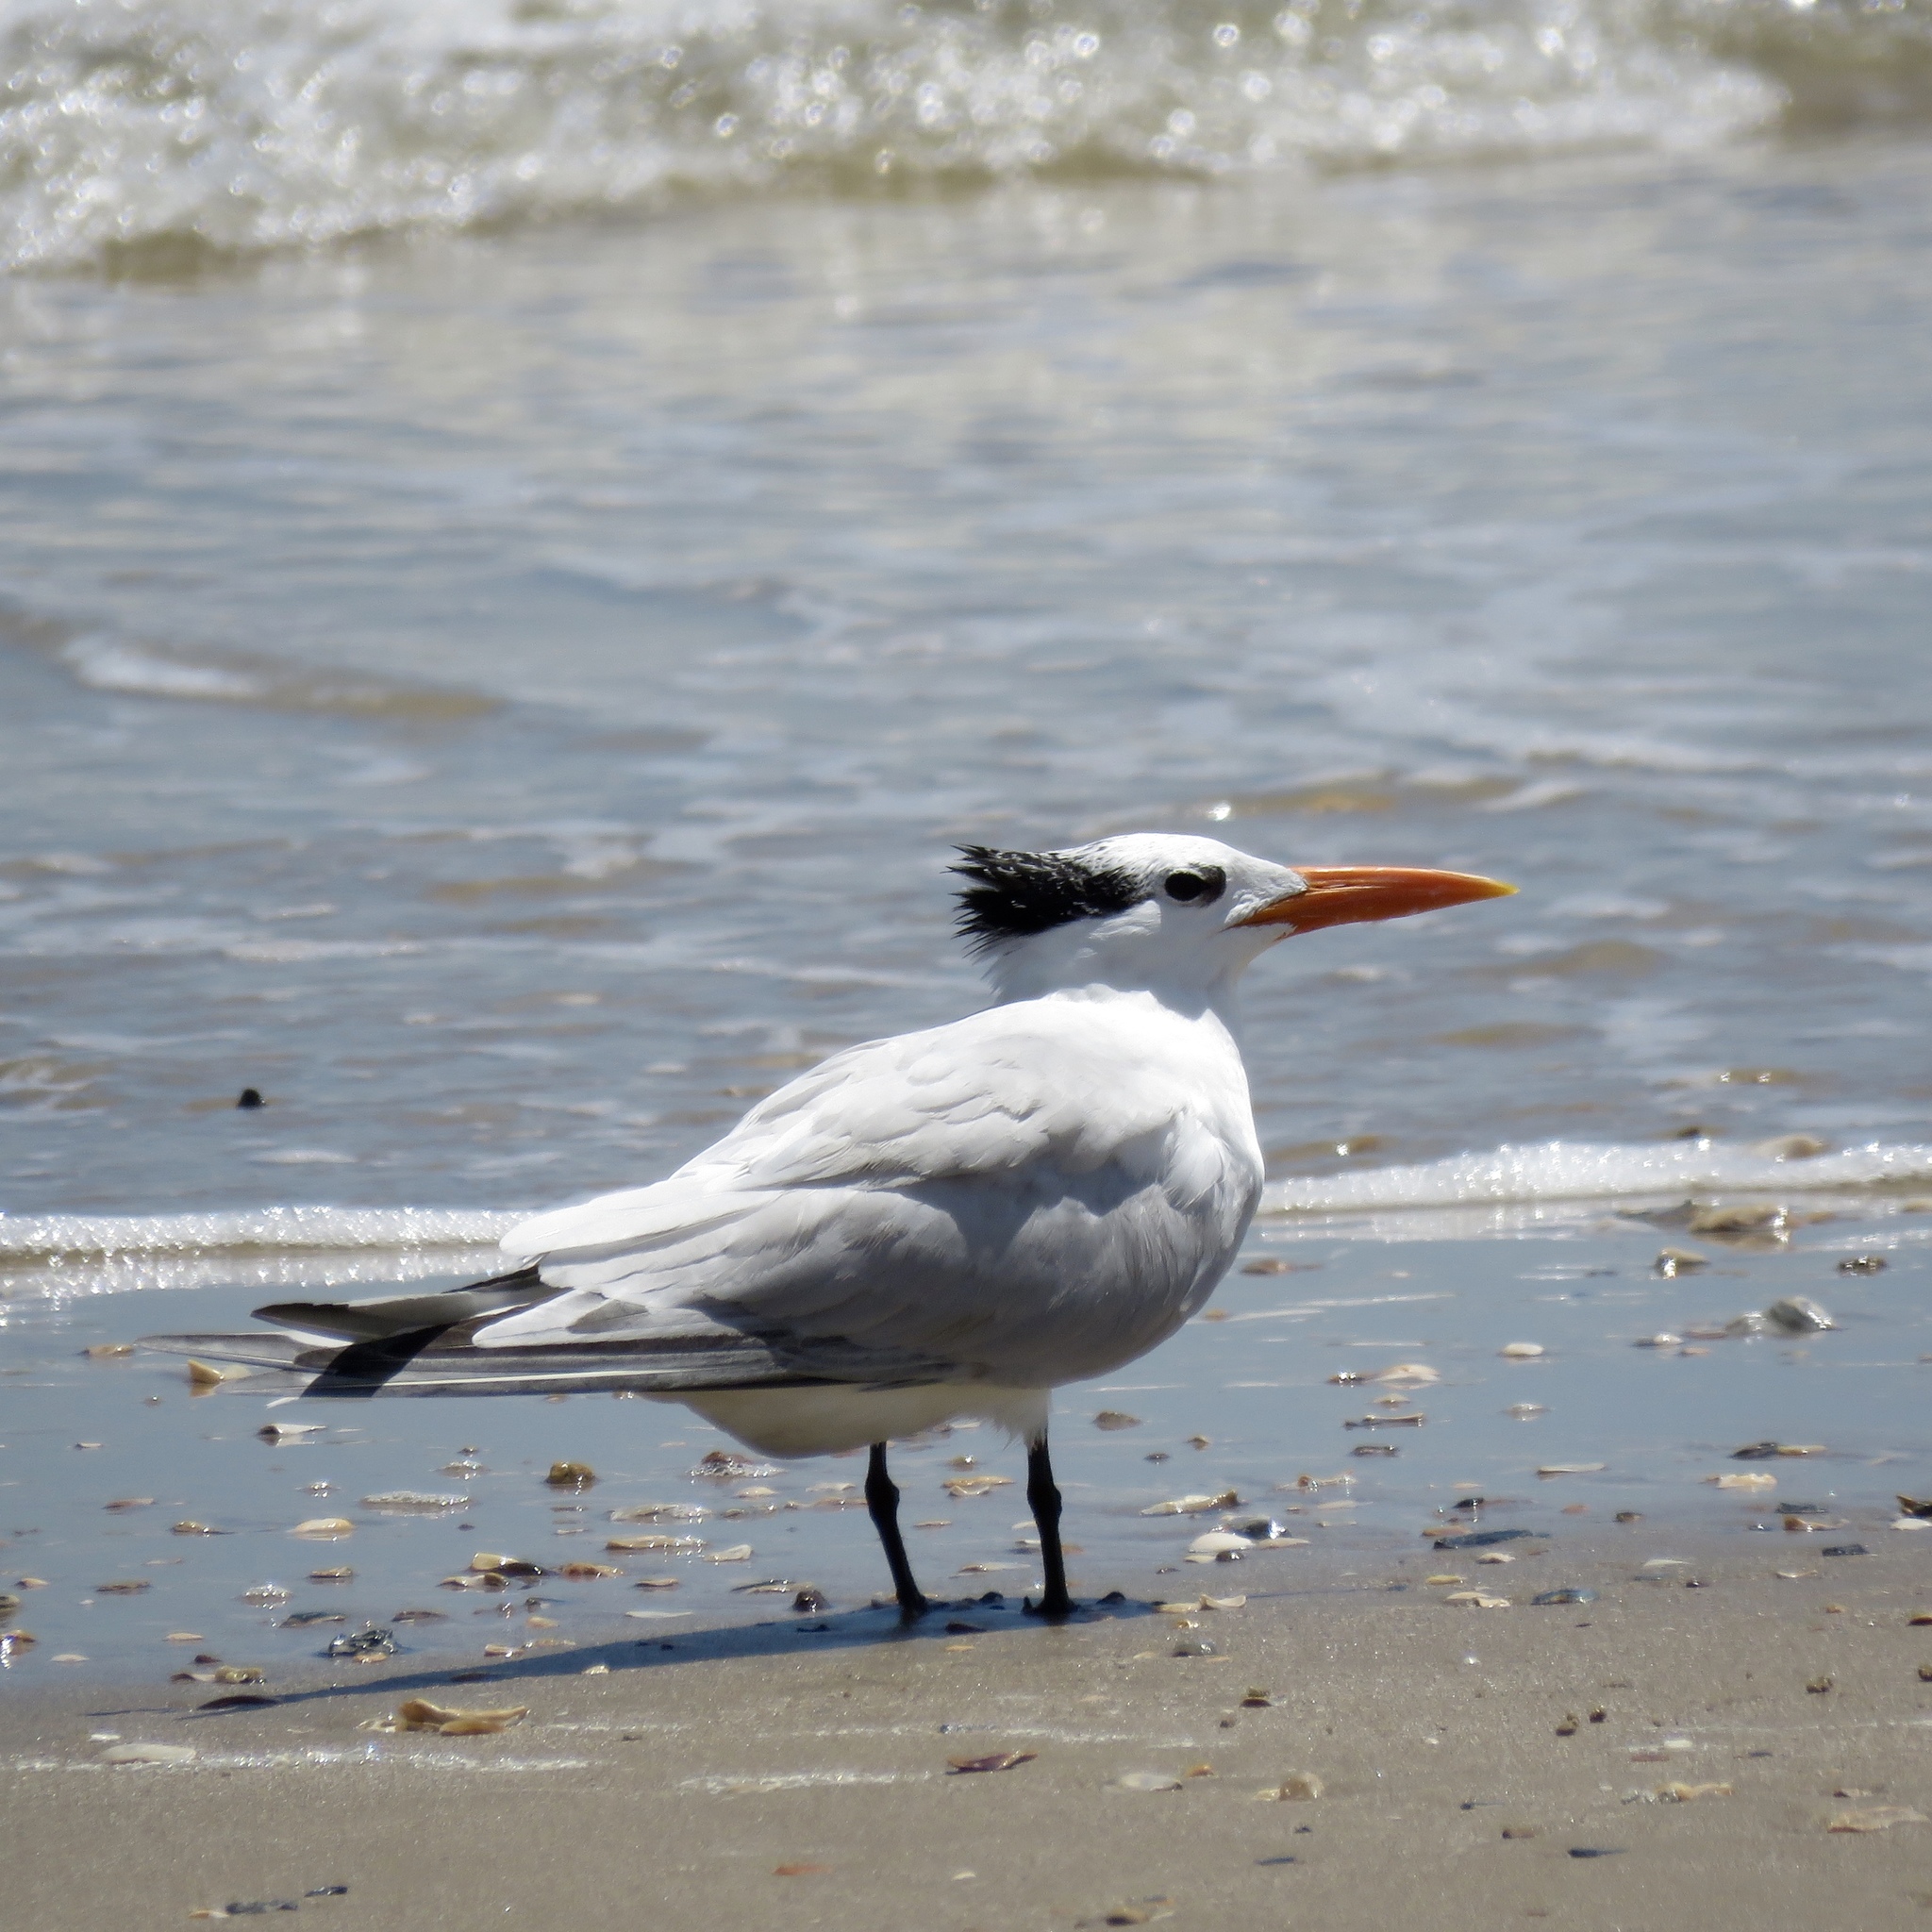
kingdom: Animalia
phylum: Chordata
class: Aves
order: Charadriiformes
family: Laridae
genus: Thalasseus
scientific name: Thalasseus maximus
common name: Royal tern
